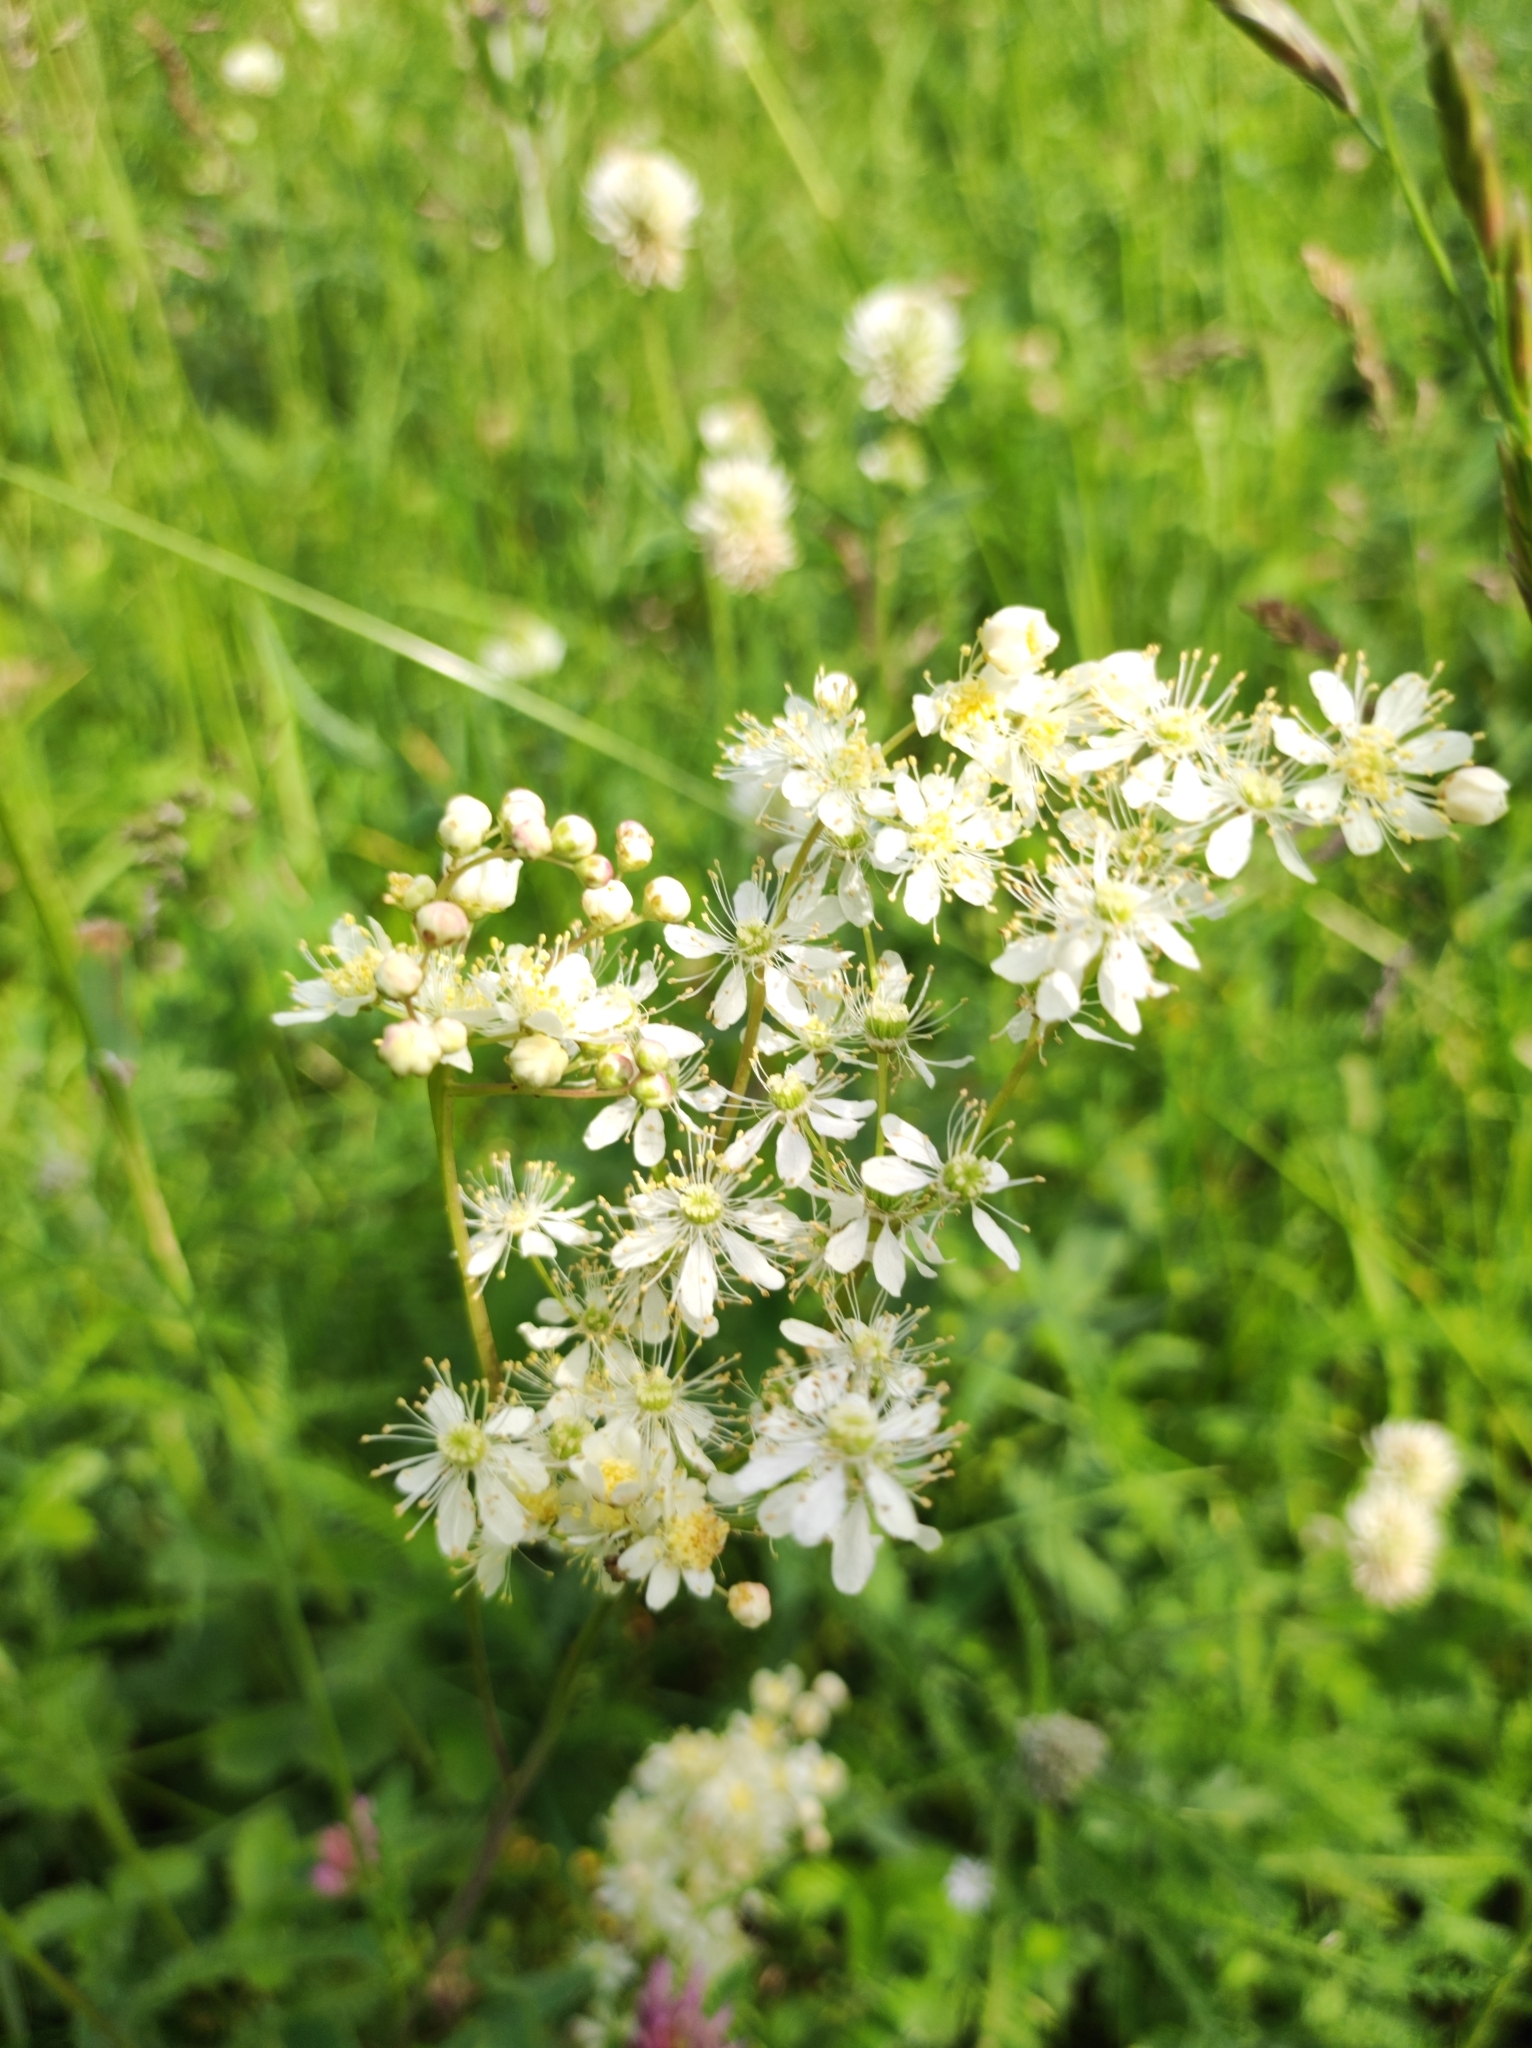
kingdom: Plantae
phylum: Tracheophyta
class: Magnoliopsida
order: Rosales
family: Rosaceae
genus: Filipendula
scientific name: Filipendula vulgaris
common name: Dropwort
